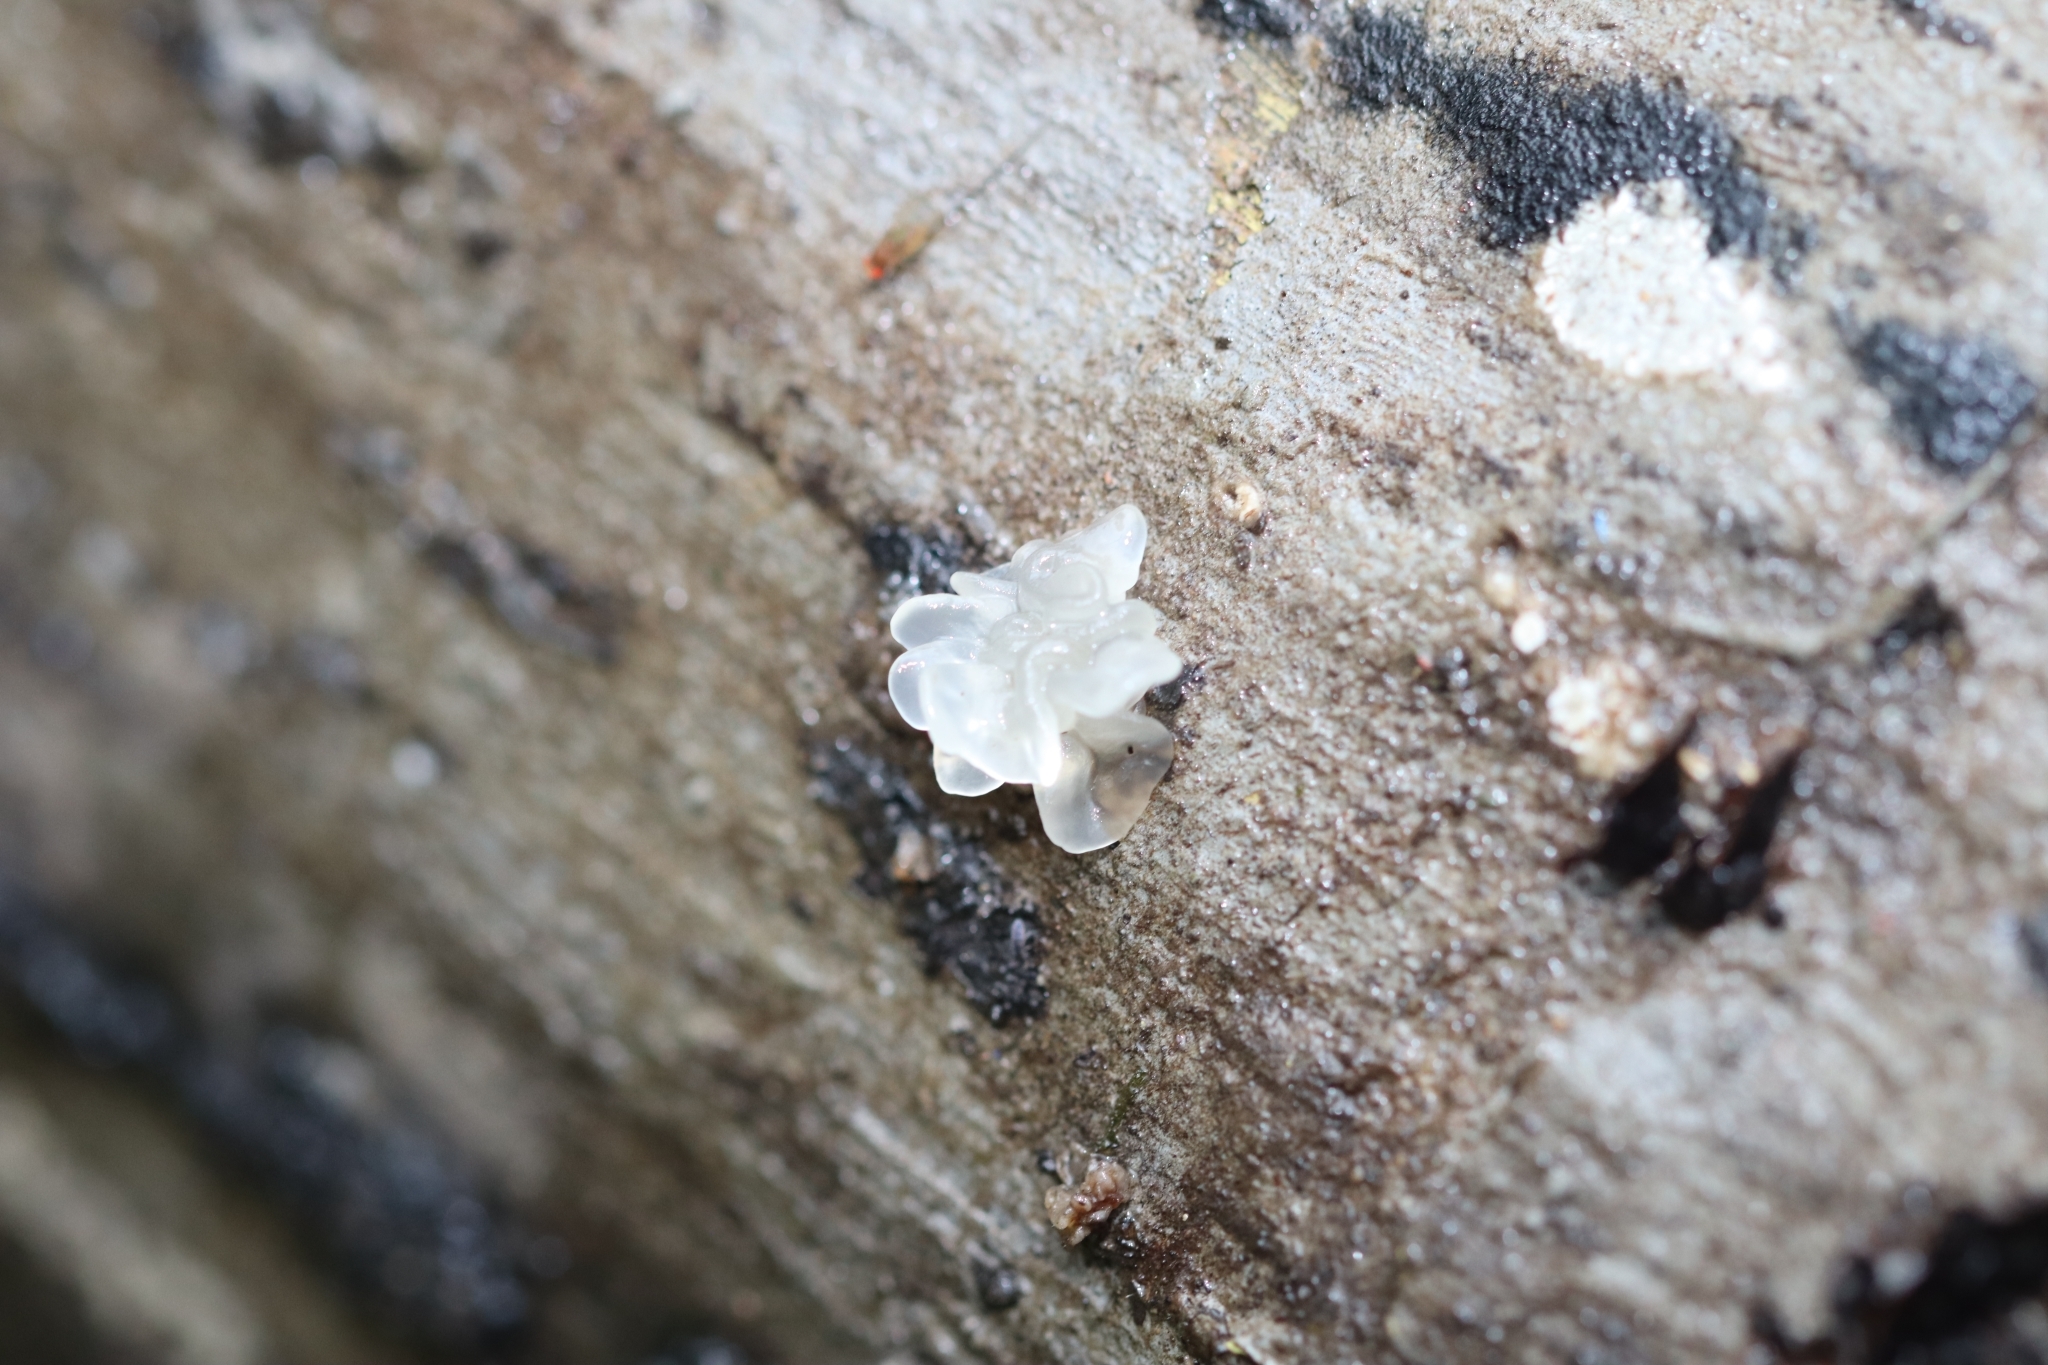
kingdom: Fungi
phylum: Basidiomycota
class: Tremellomycetes
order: Tremellales
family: Tremellaceae
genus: Tremella
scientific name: Tremella fuciformis
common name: Snow fungus
